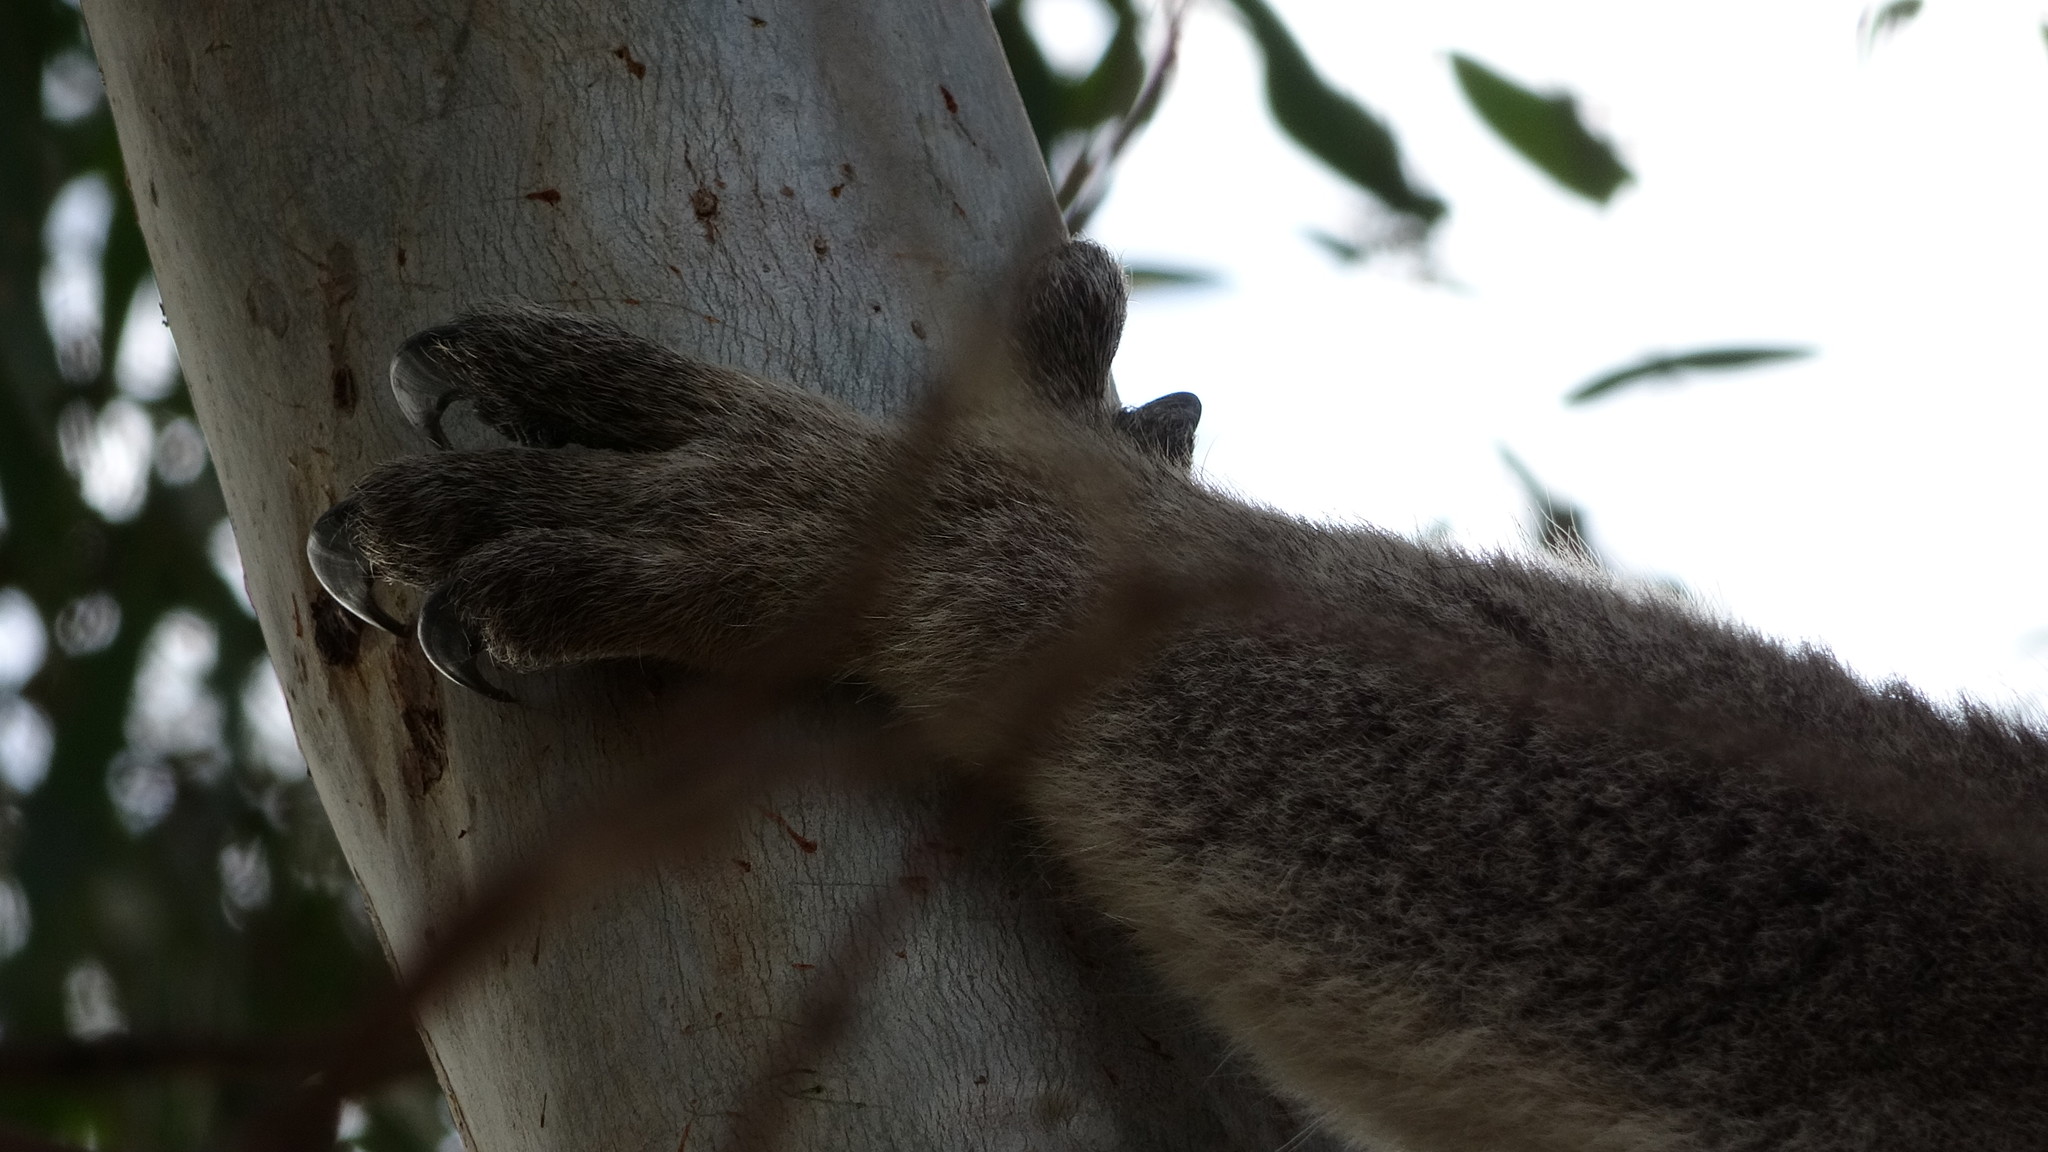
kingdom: Animalia
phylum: Chordata
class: Mammalia
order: Diprotodontia
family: Phascolarctidae
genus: Phascolarctos
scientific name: Phascolarctos cinereus
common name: Koala
